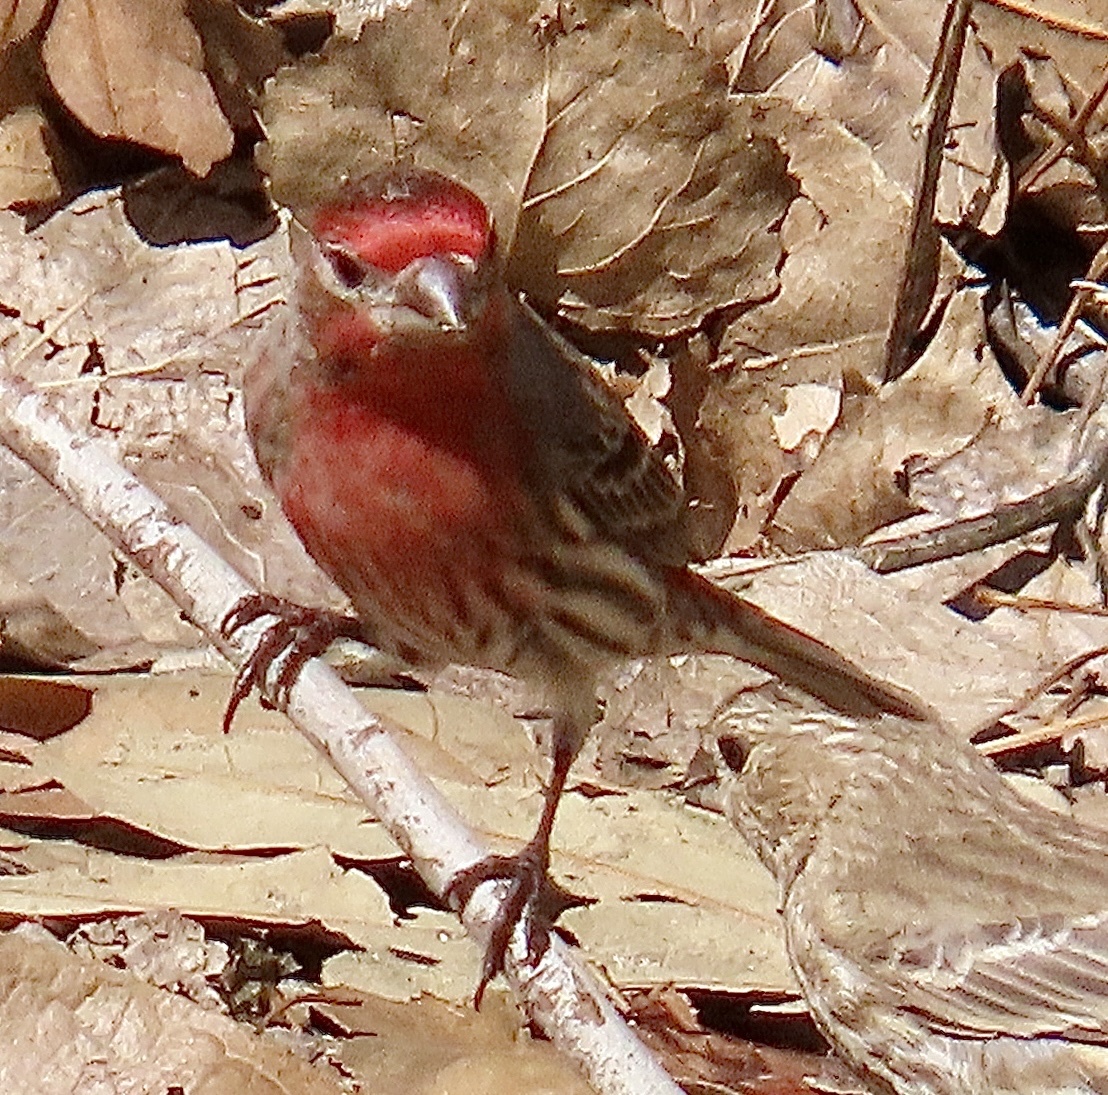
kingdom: Animalia
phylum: Chordata
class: Aves
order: Passeriformes
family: Fringillidae
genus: Haemorhous
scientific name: Haemorhous mexicanus
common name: House finch
